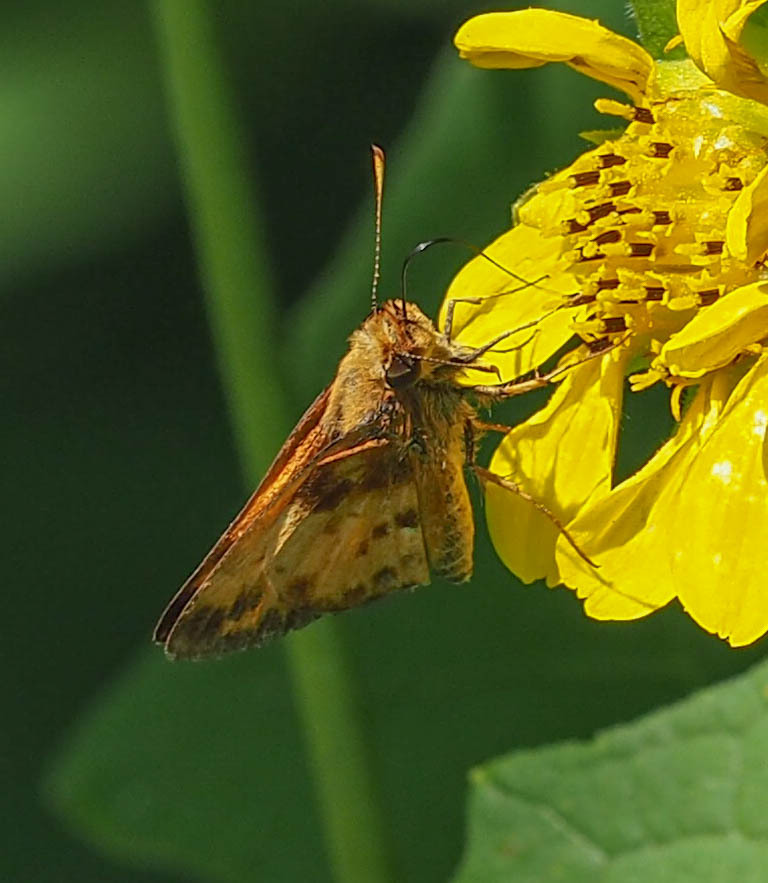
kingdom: Animalia
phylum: Arthropoda
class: Insecta
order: Lepidoptera
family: Hesperiidae
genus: Lon
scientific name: Lon zabulon
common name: Zabulon skipper
